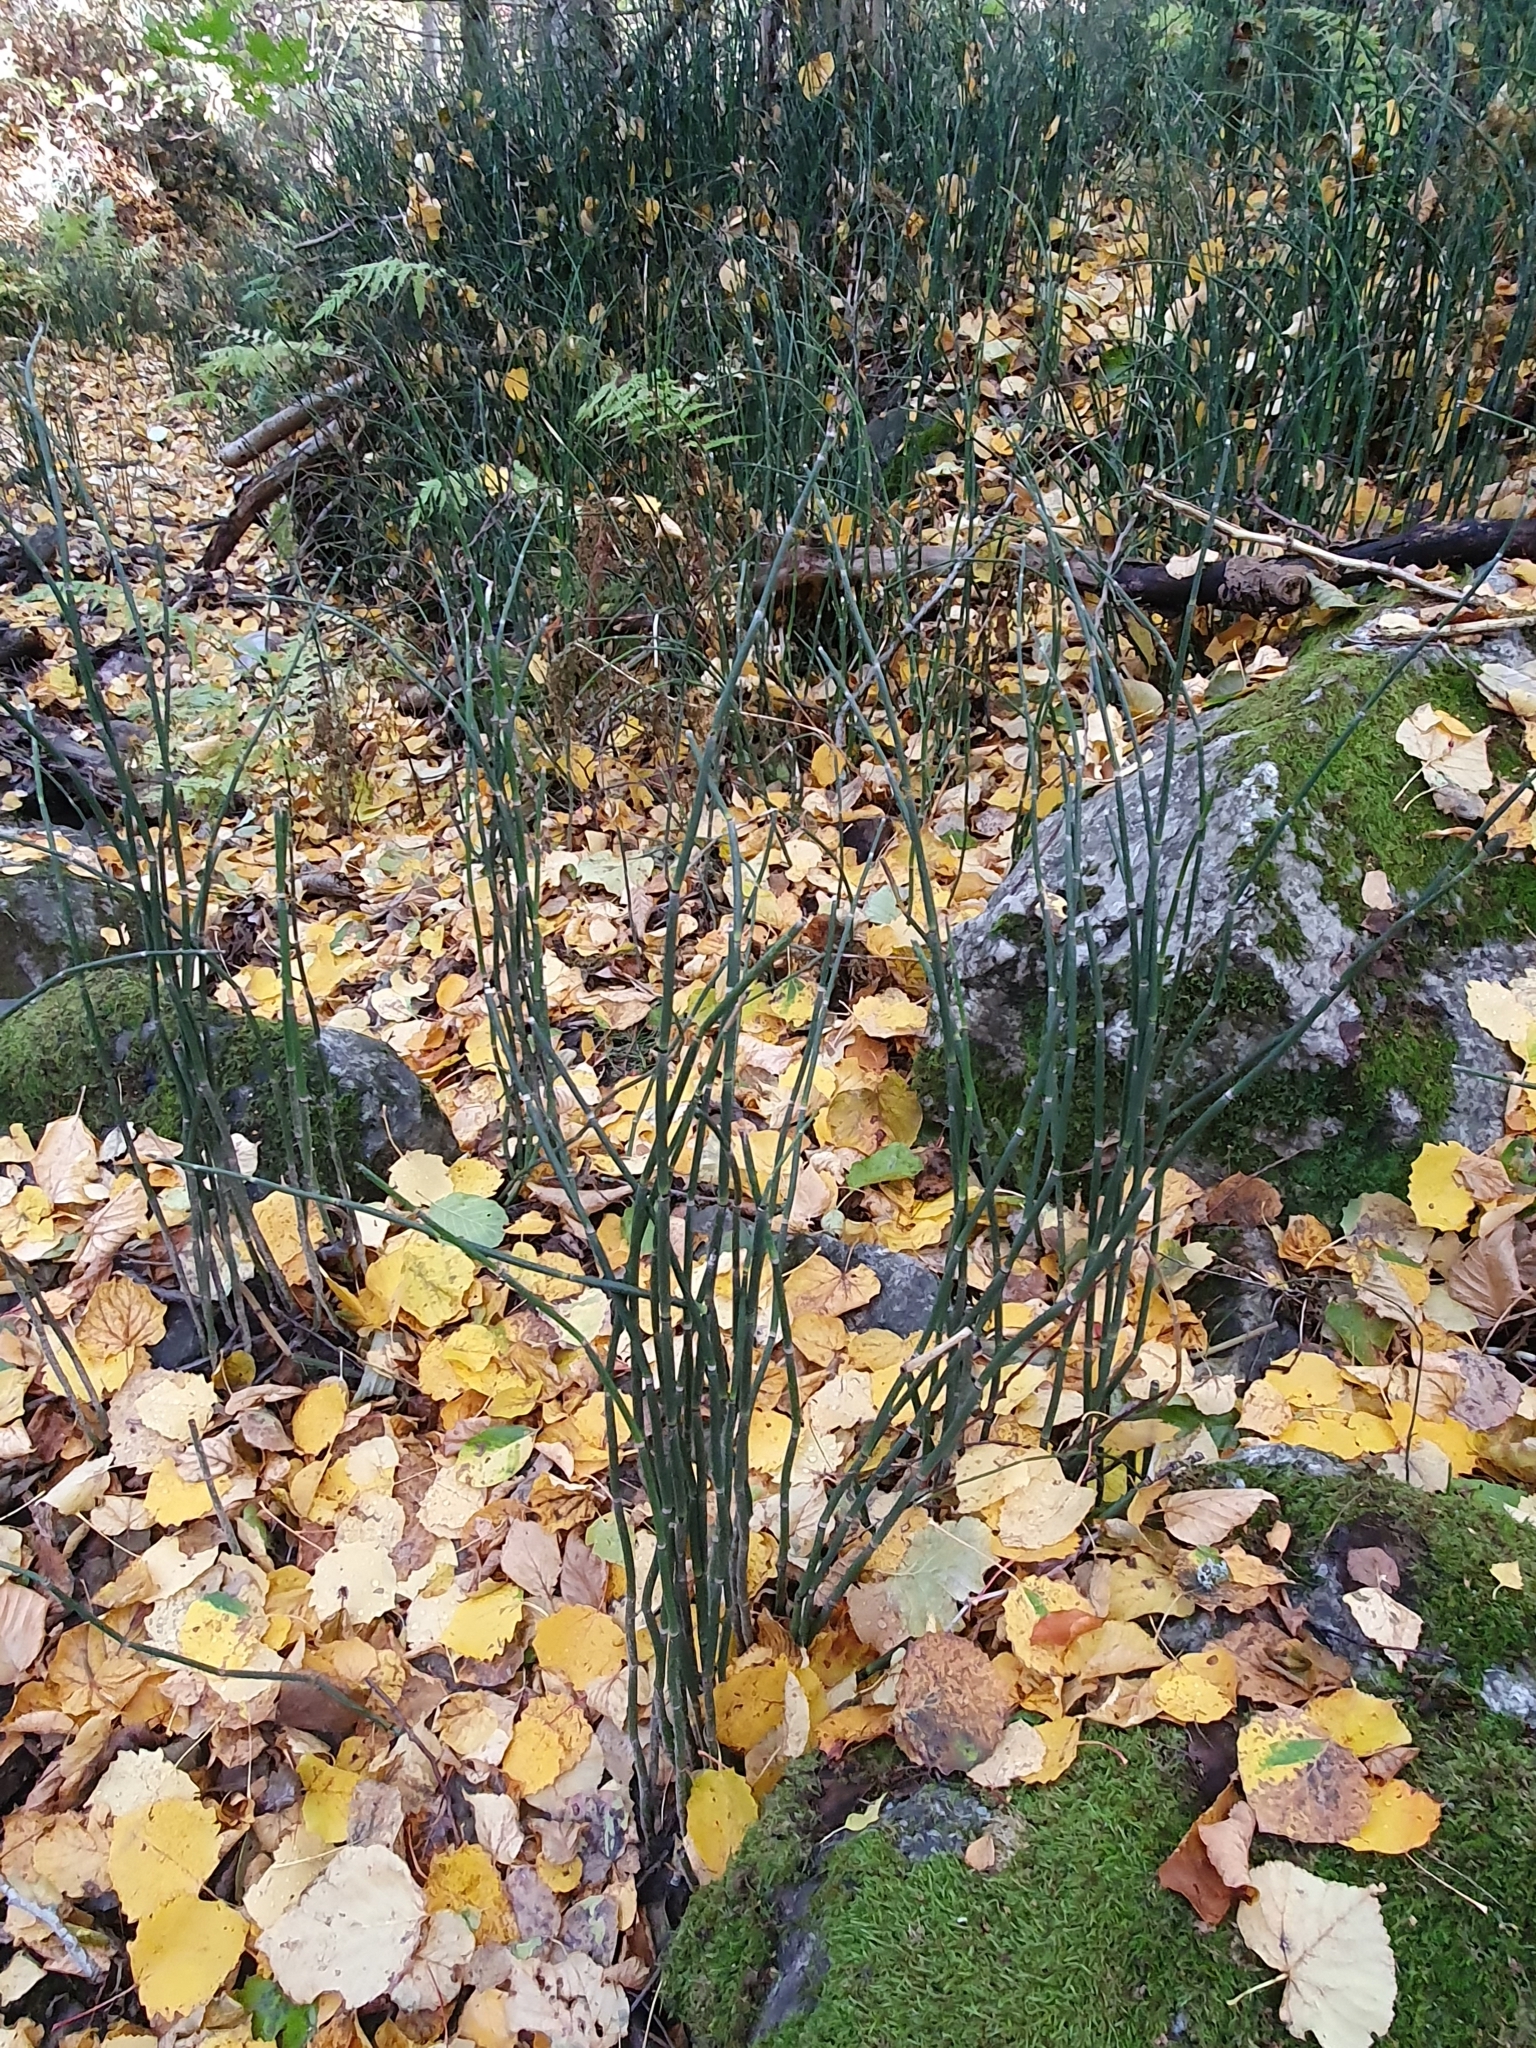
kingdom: Plantae
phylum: Tracheophyta
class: Polypodiopsida
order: Equisetales
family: Equisetaceae
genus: Equisetum
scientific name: Equisetum hyemale
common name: Rough horsetail
